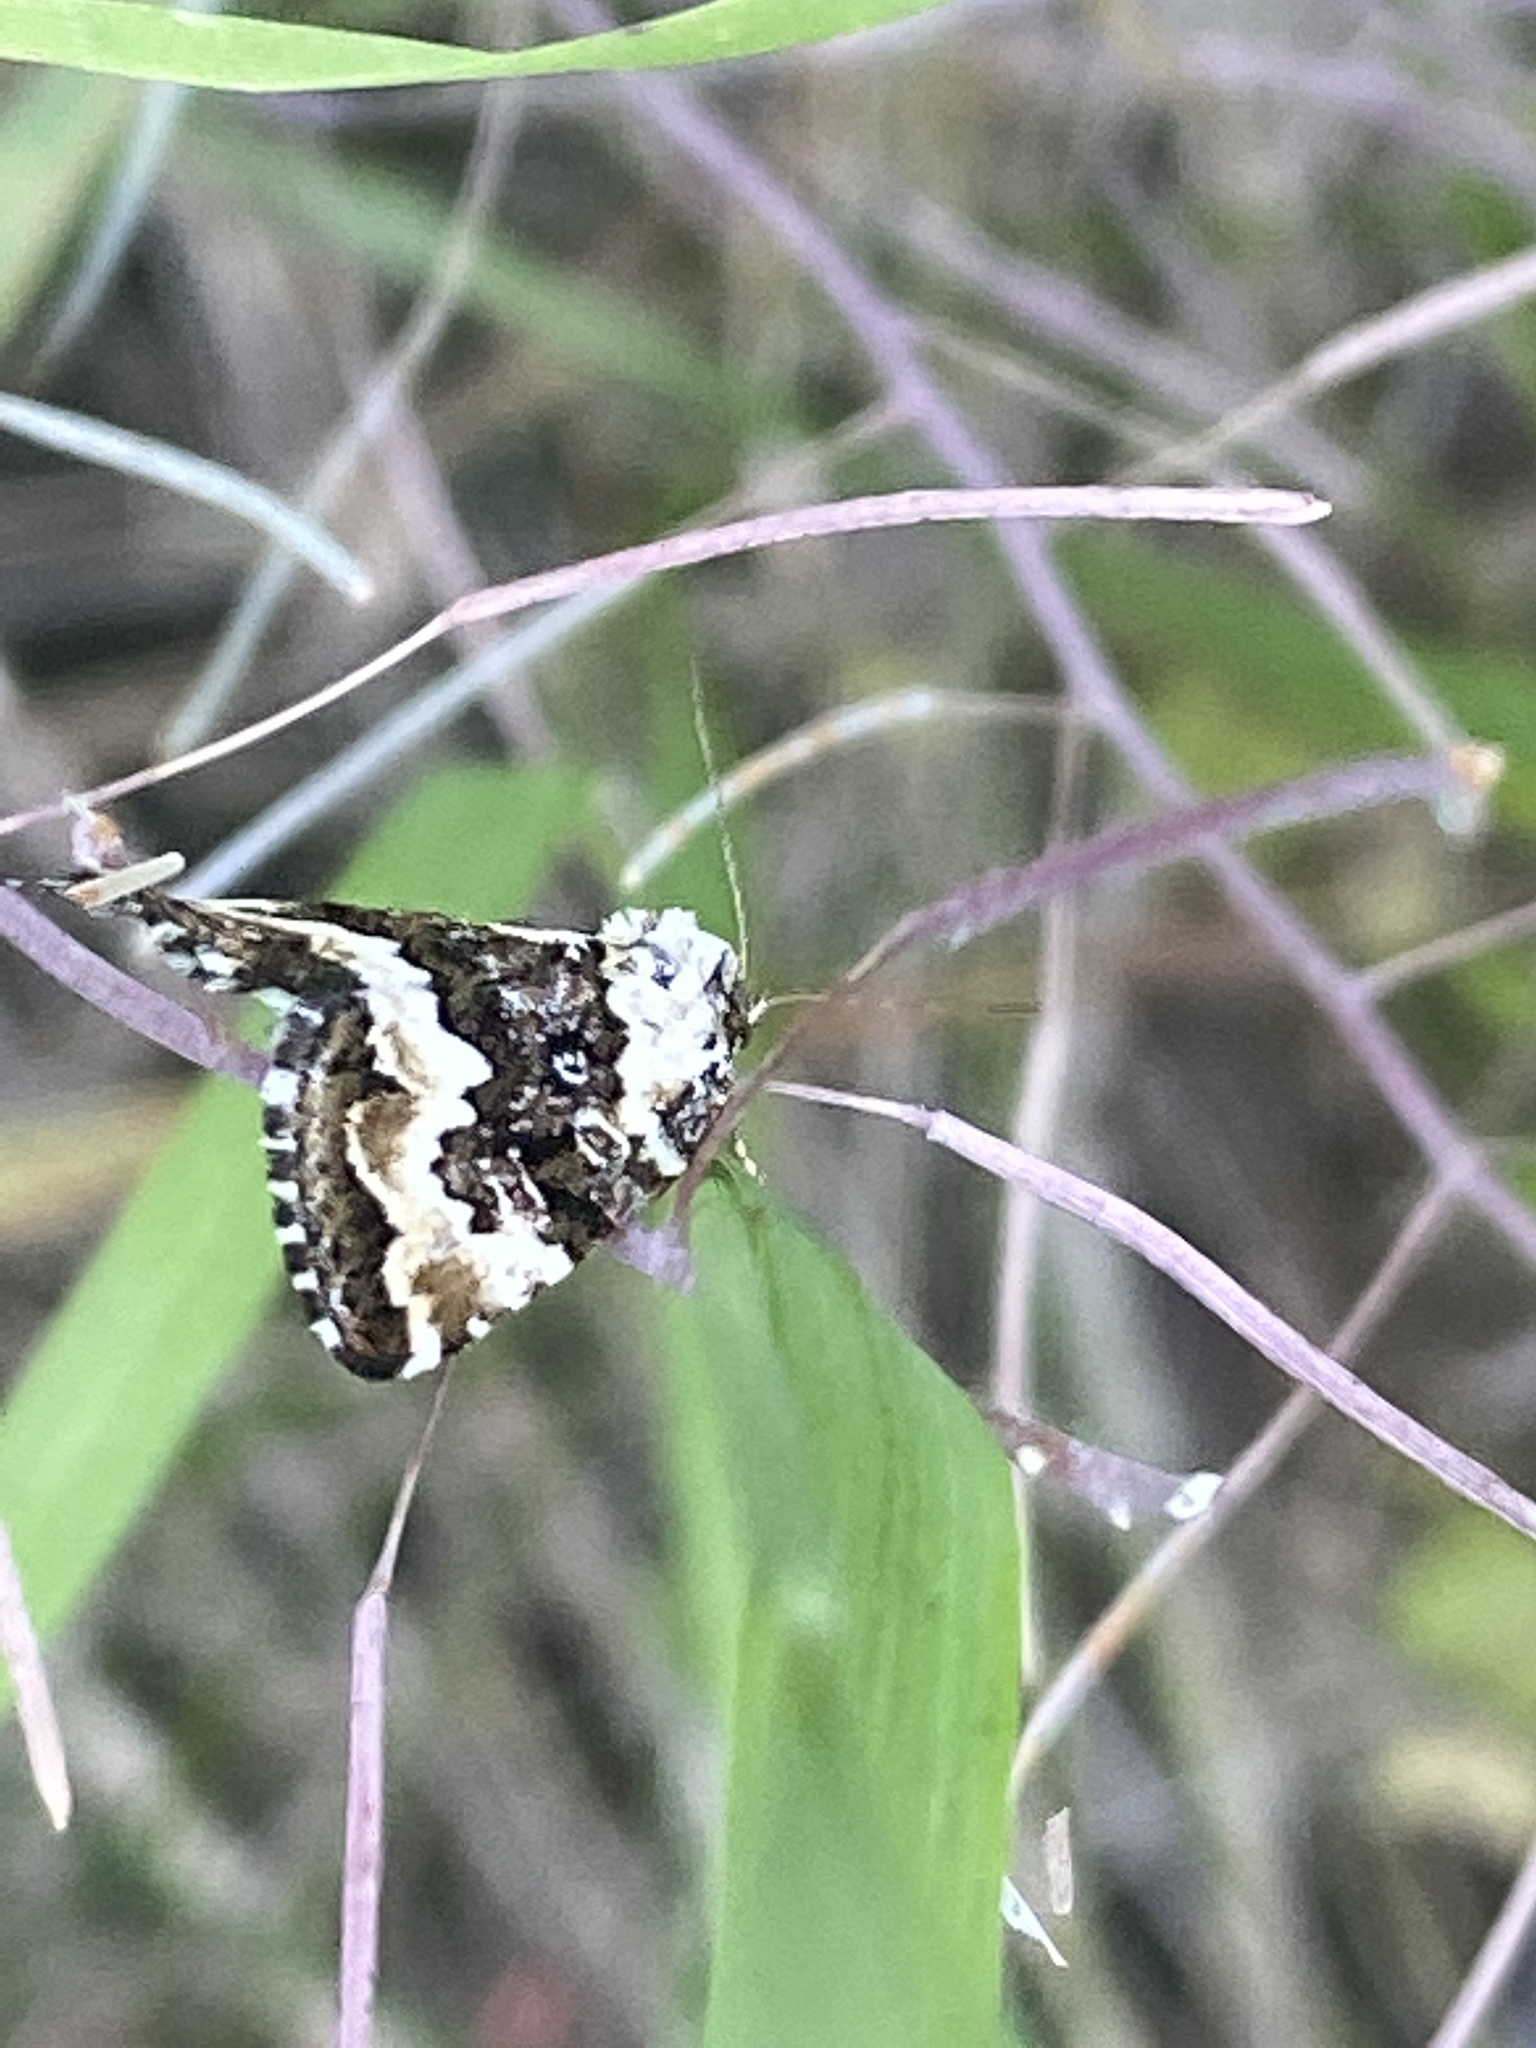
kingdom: Animalia
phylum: Arthropoda
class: Insecta
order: Lepidoptera
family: Noctuidae
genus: Deltote
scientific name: Deltote deceptoria
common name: Pretty marbled
